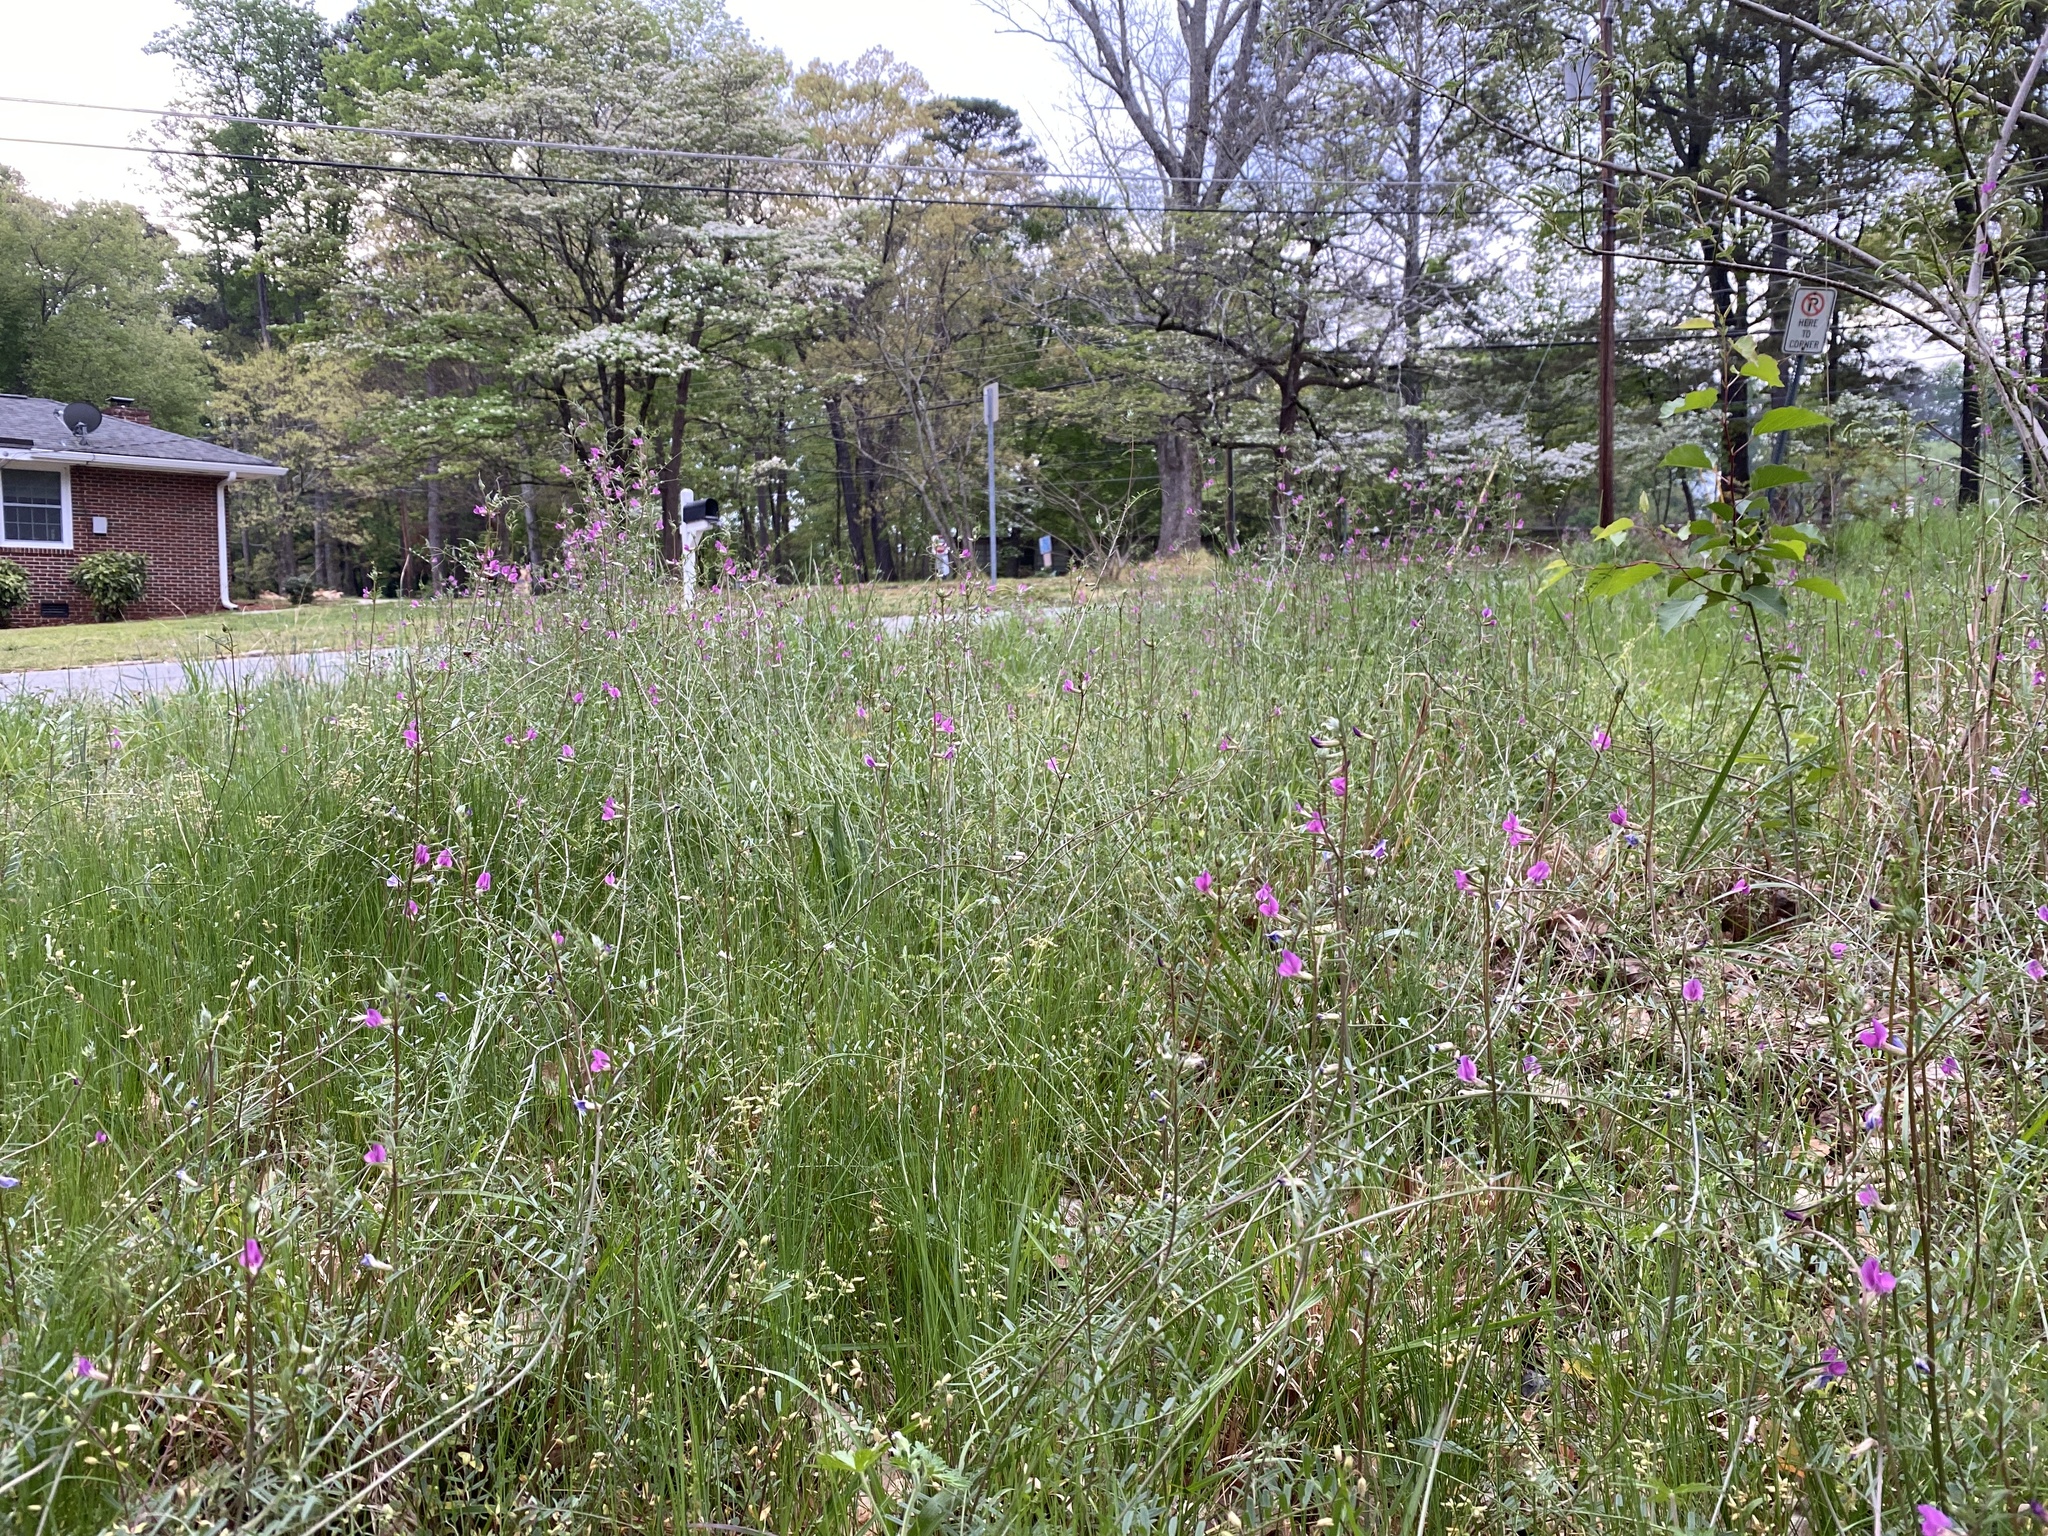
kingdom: Plantae
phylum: Tracheophyta
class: Magnoliopsida
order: Fabales
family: Fabaceae
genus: Vicia
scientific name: Vicia sativa
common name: Garden vetch
